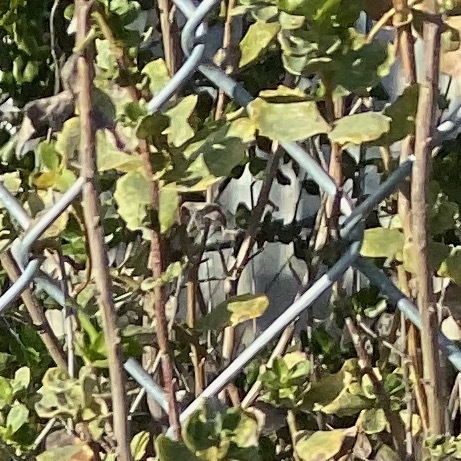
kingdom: Plantae
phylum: Tracheophyta
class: Magnoliopsida
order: Asterales
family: Asteraceae
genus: Baccharis
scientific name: Baccharis pilularis
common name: Coyotebrush
